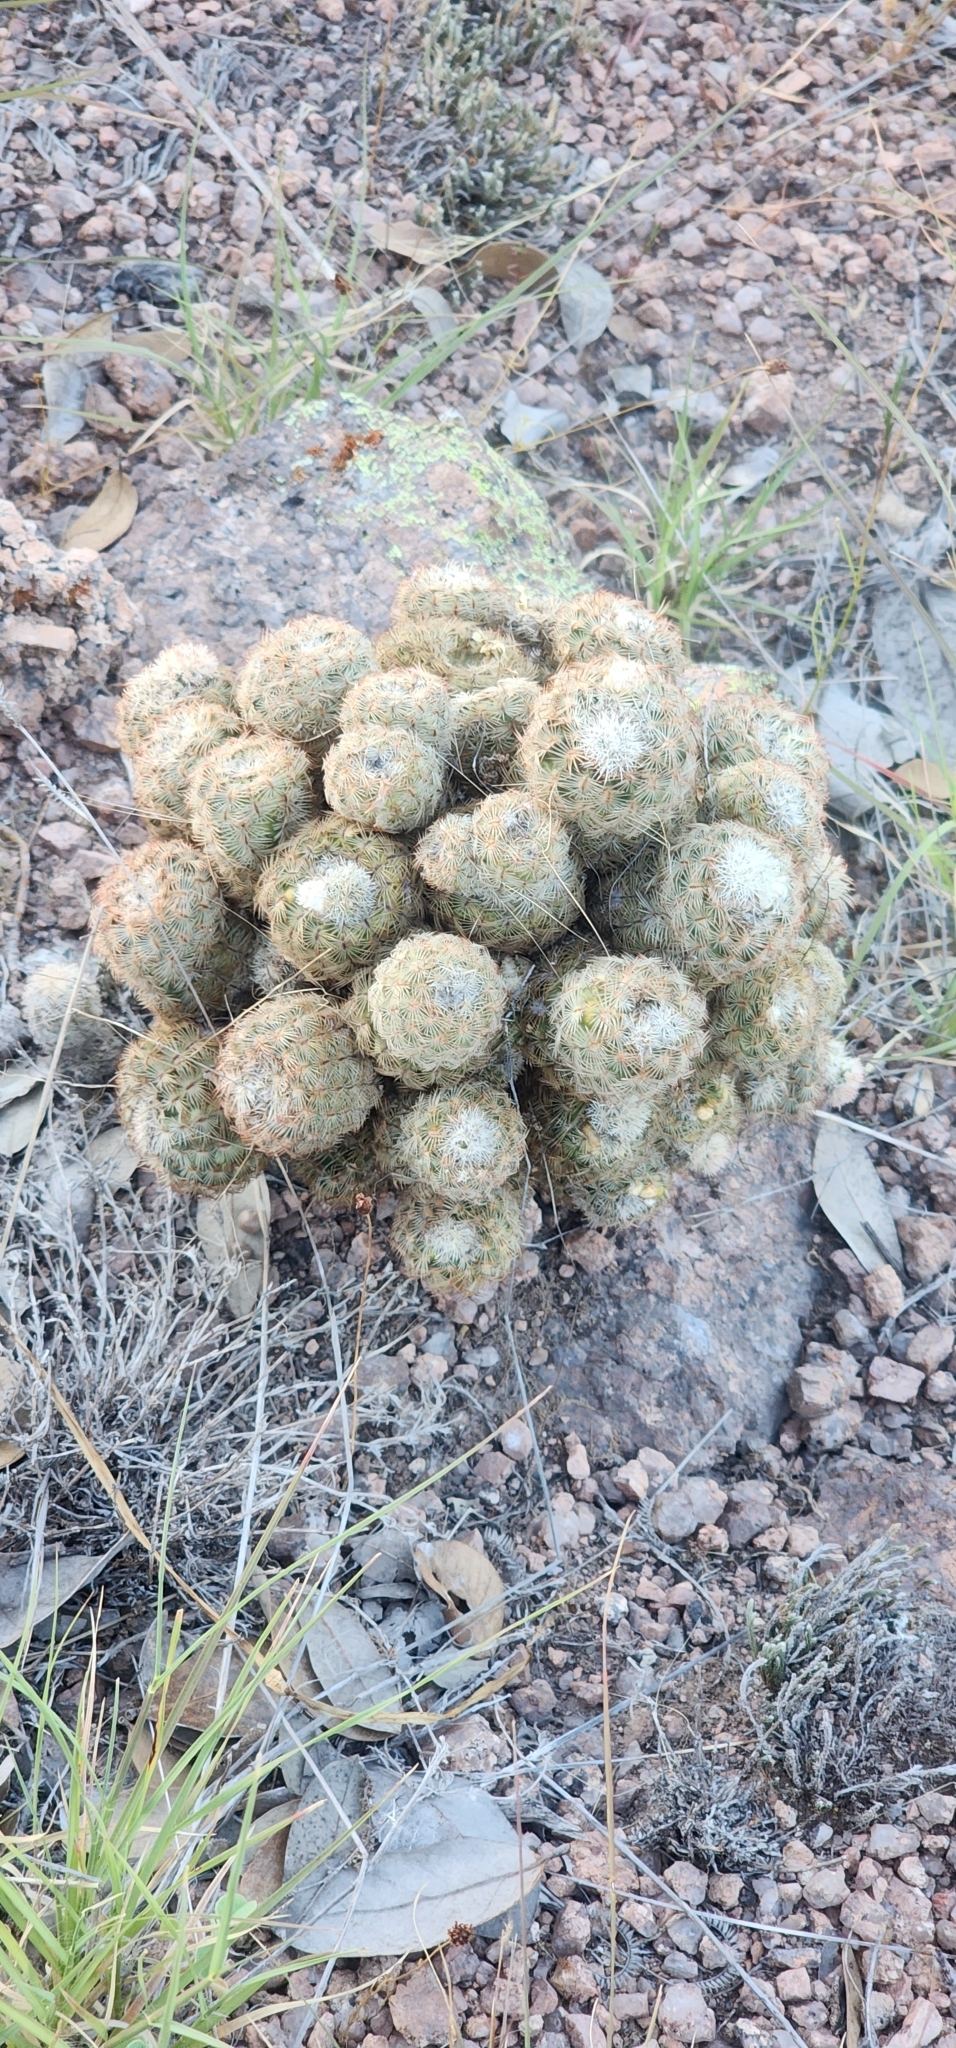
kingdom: Plantae
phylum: Tracheophyta
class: Magnoliopsida
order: Caryophyllales
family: Cactaceae
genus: Echinocereus
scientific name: Echinocereus reichenbachii
